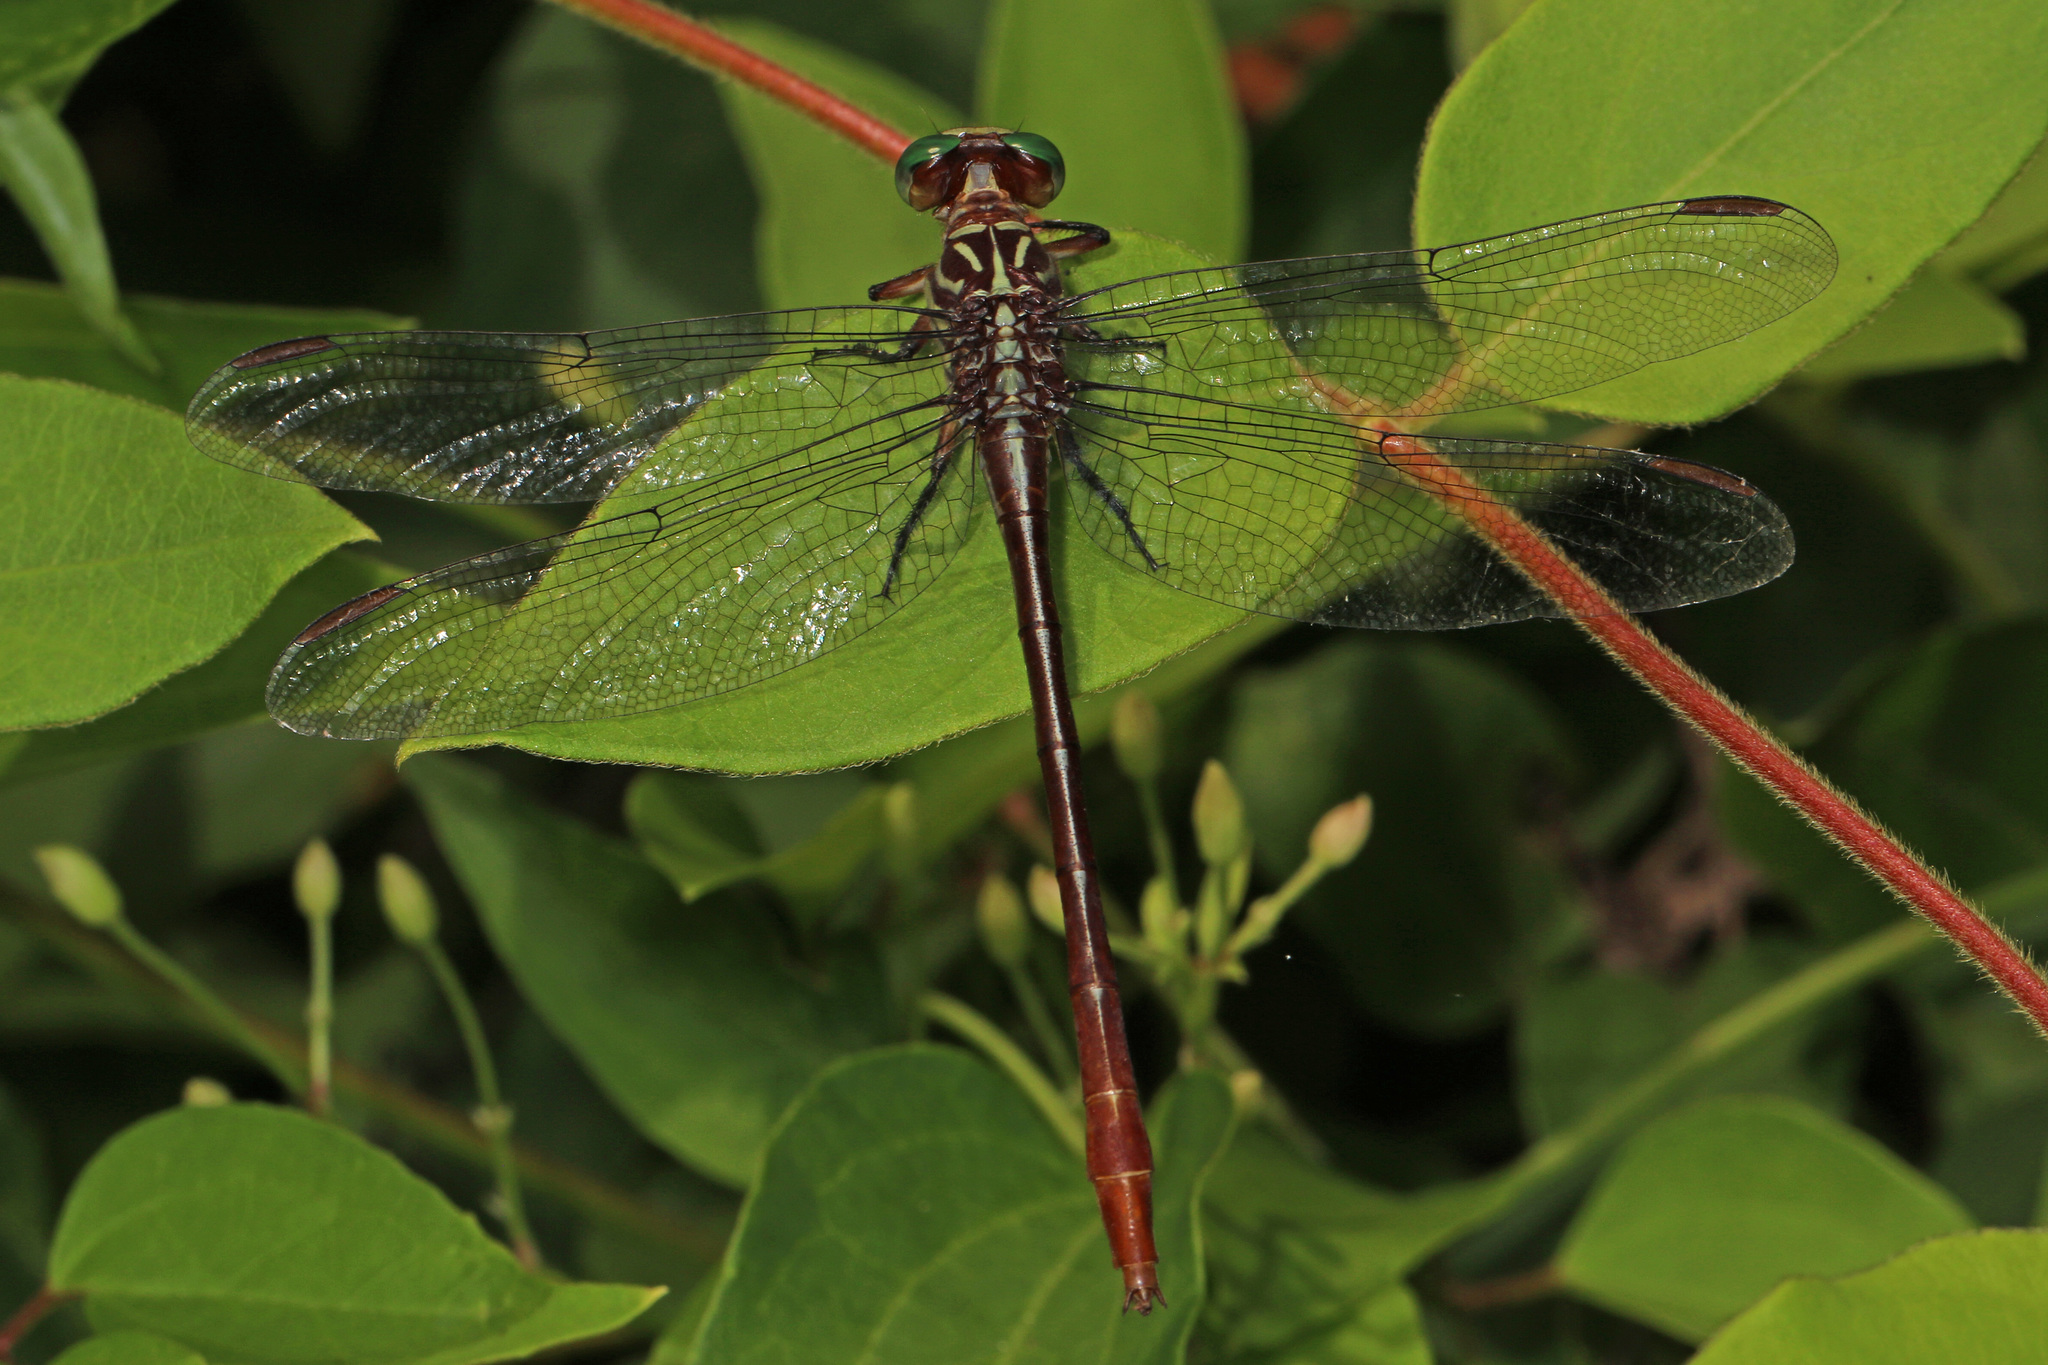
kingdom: Animalia
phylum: Arthropoda
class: Insecta
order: Odonata
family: Gomphidae
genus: Stylurus
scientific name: Stylurus plagiatus
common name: Russet-tipped clubtail
